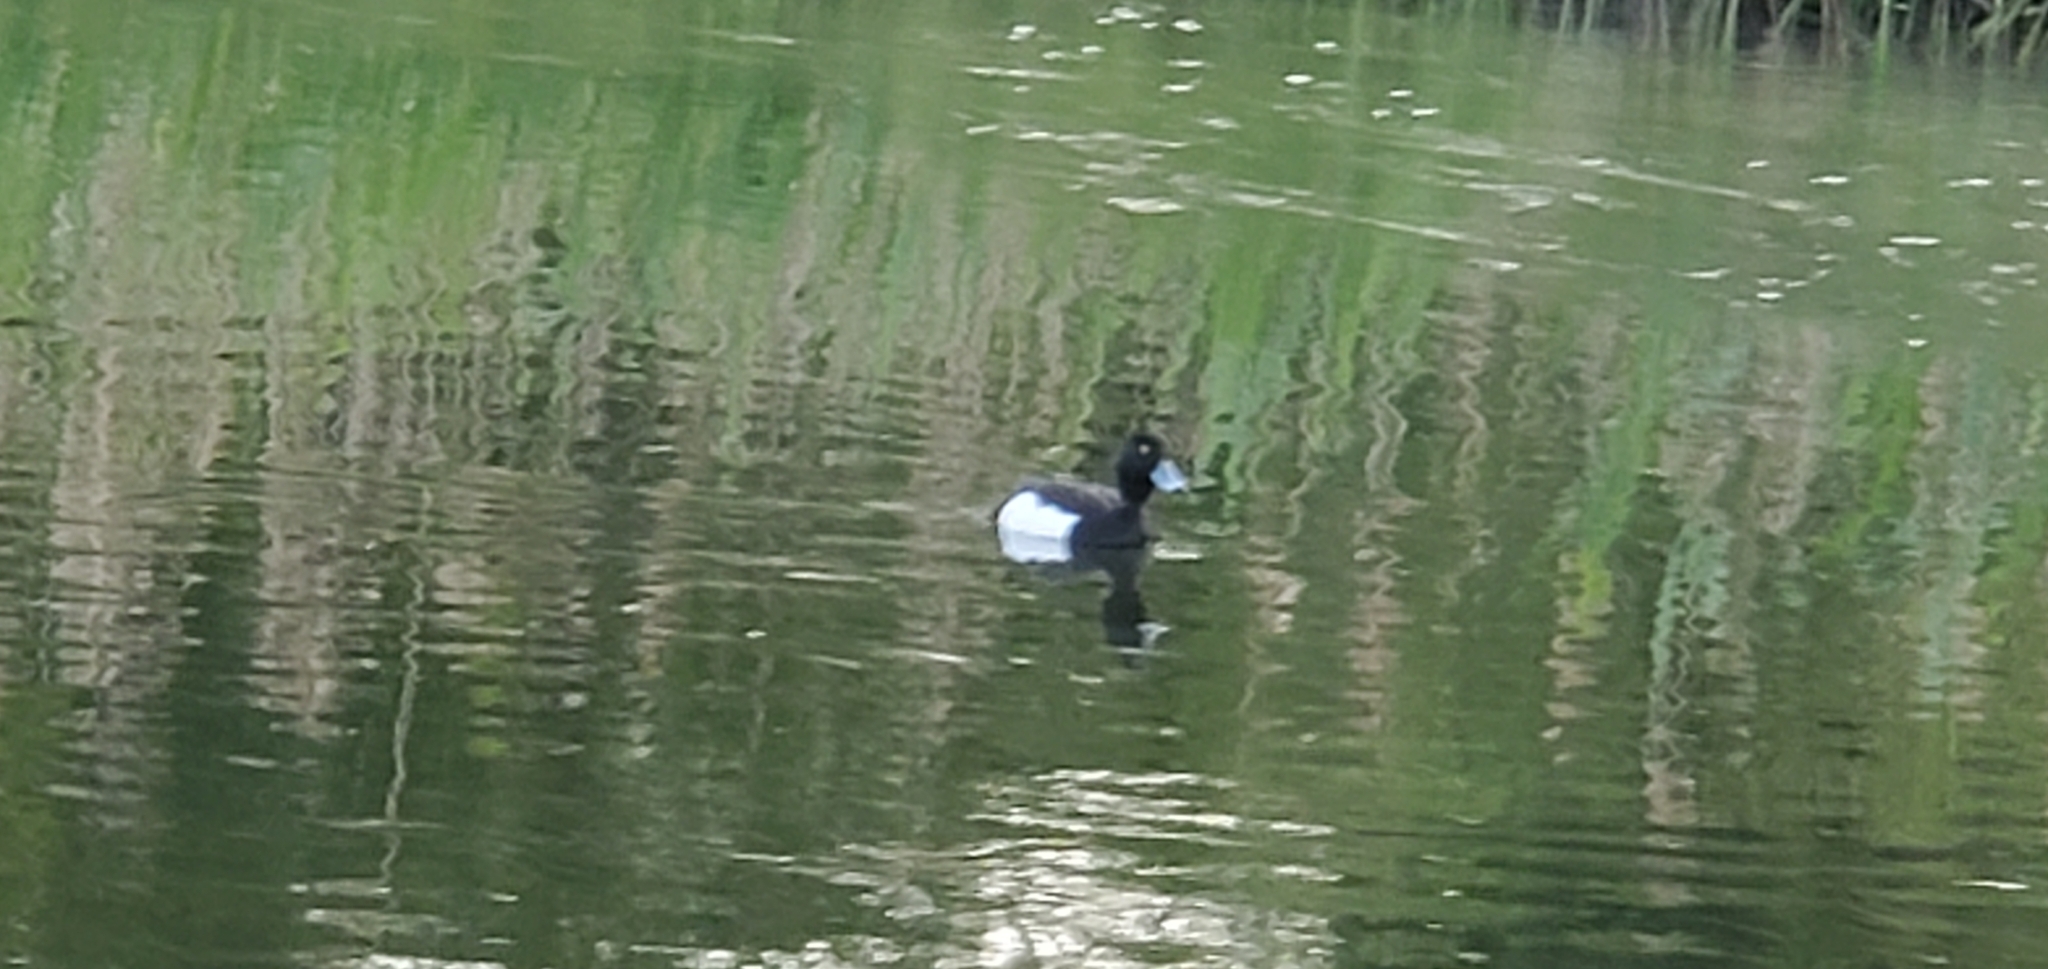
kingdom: Animalia
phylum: Chordata
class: Aves
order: Anseriformes
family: Anatidae
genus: Aythya
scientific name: Aythya fuligula
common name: Tufted duck
